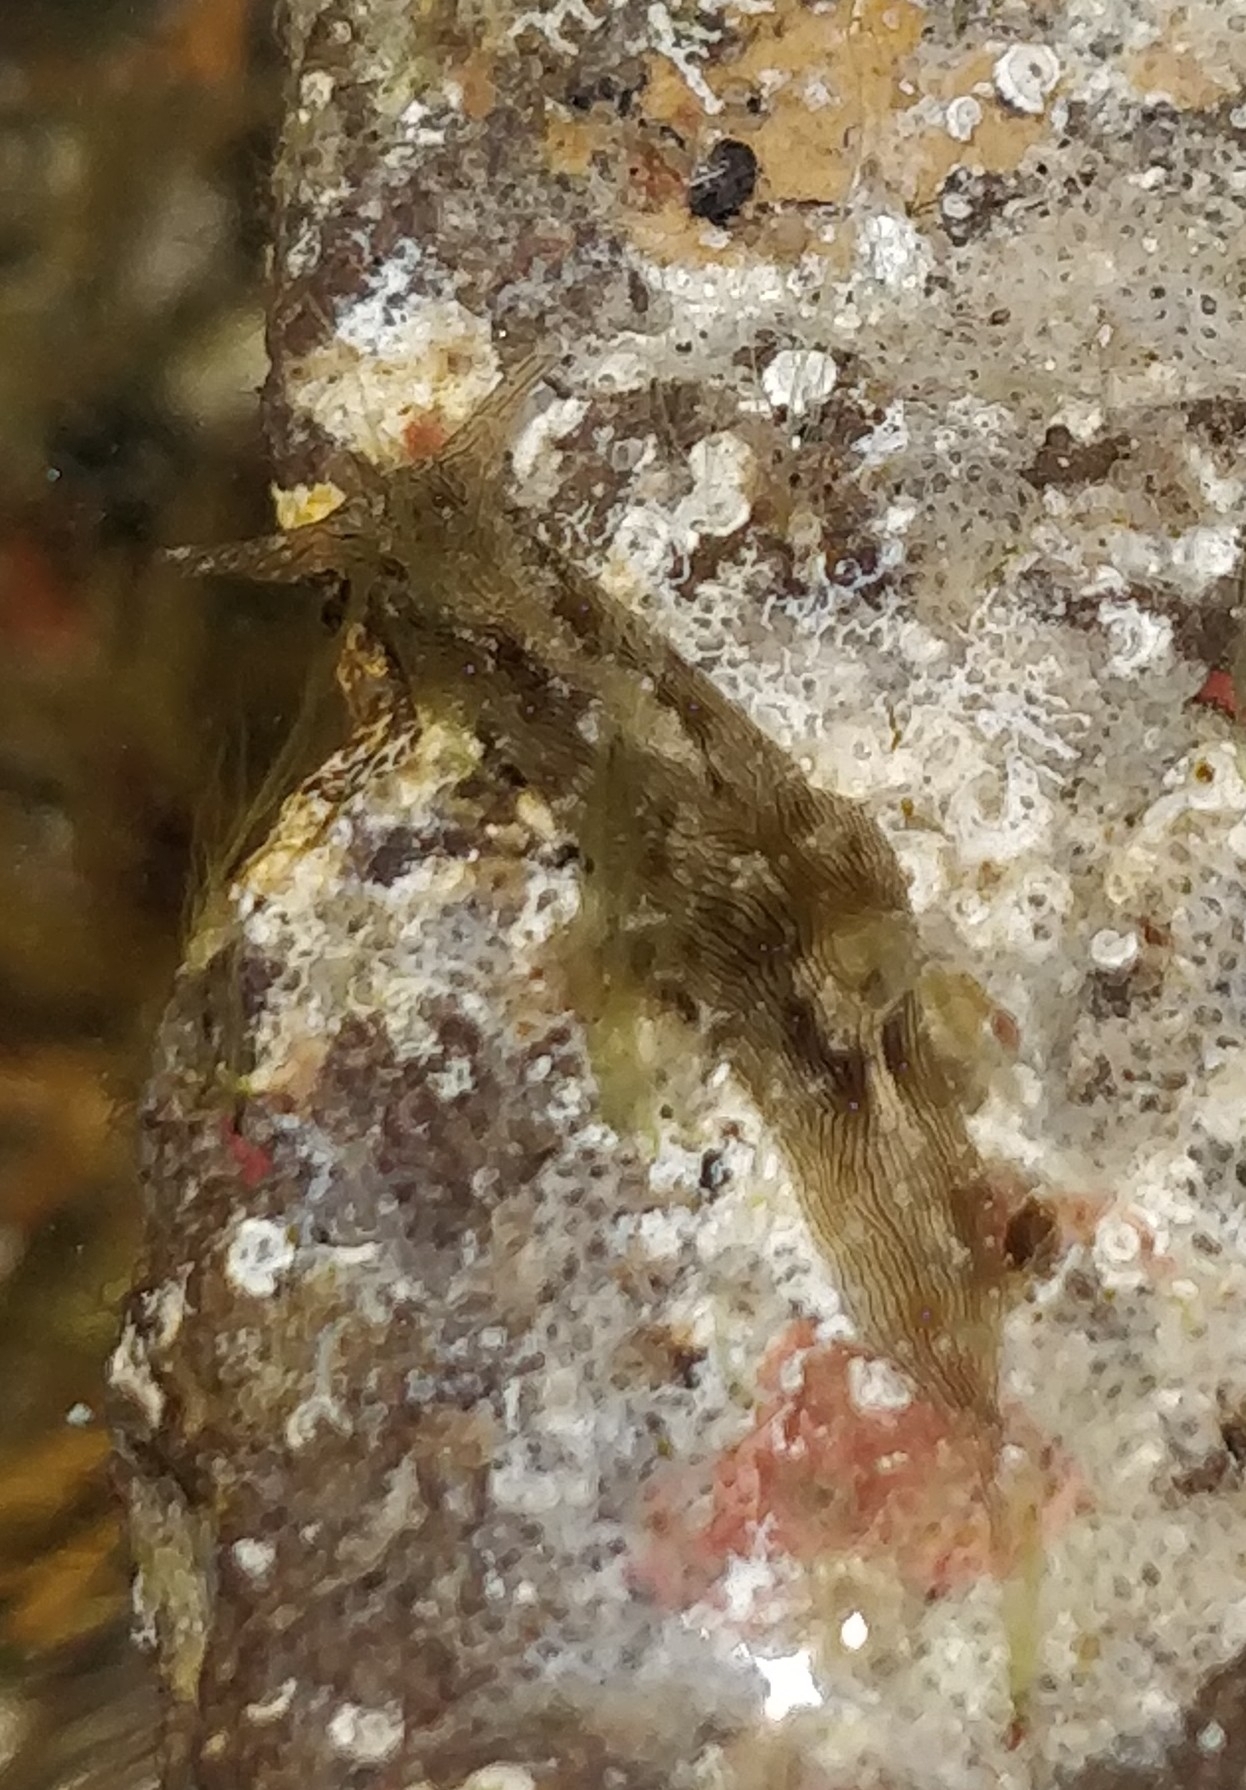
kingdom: Animalia
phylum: Mollusca
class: Gastropoda
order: Aplysiida
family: Aplysiidae
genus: Stylocheilus
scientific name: Stylocheilus polyomma
